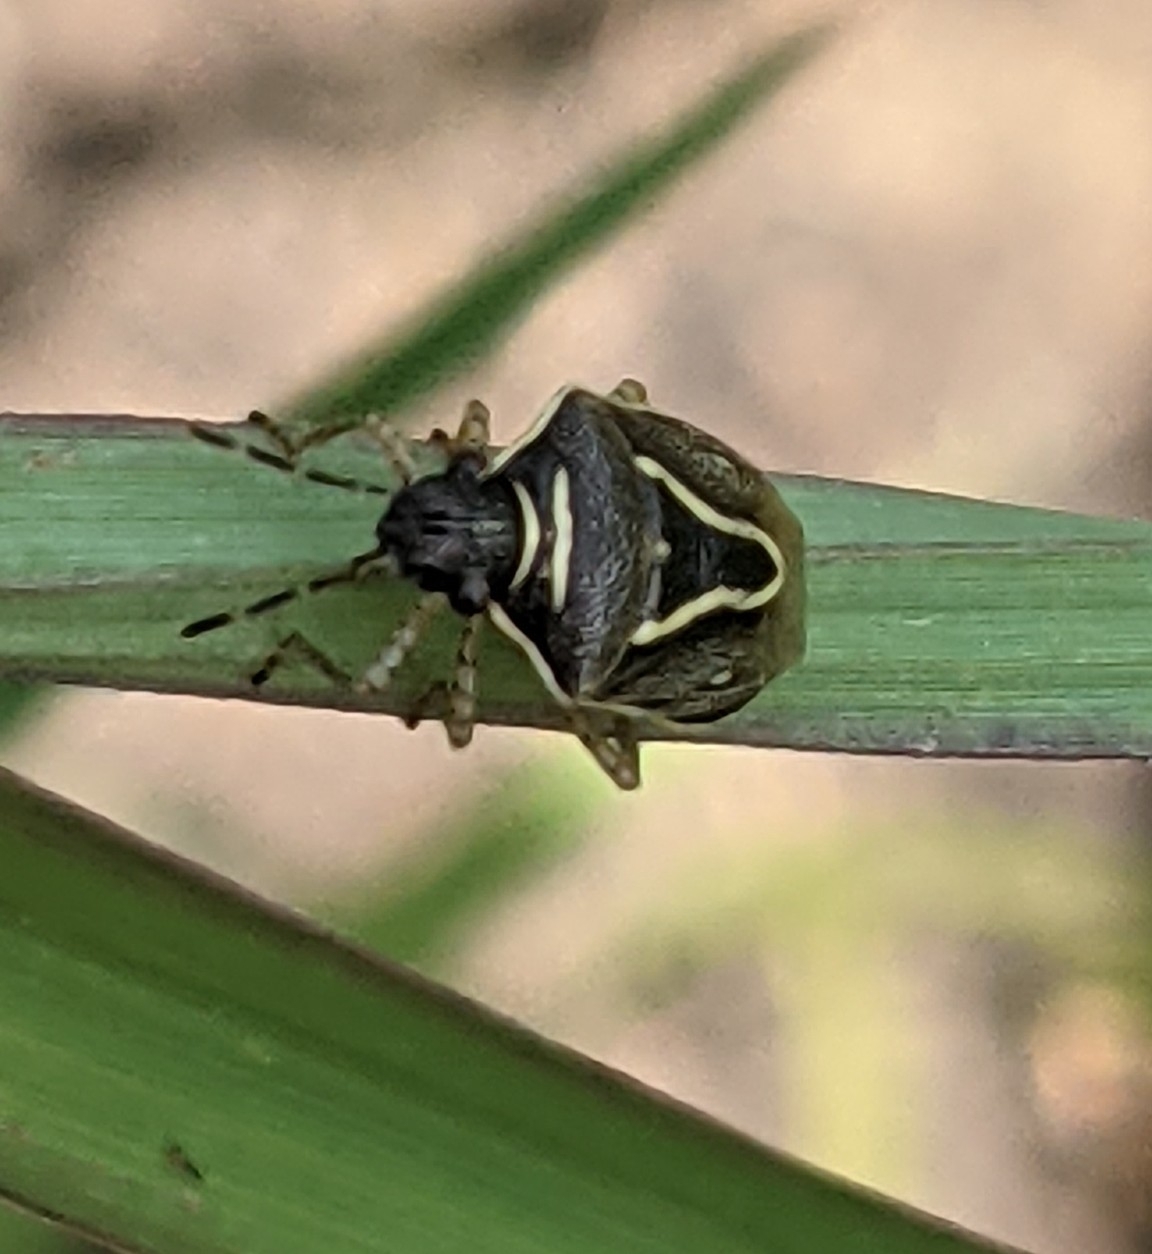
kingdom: Animalia
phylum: Arthropoda
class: Insecta
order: Hemiptera
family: Pentatomidae
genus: Mormidea
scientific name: Mormidea lugens
